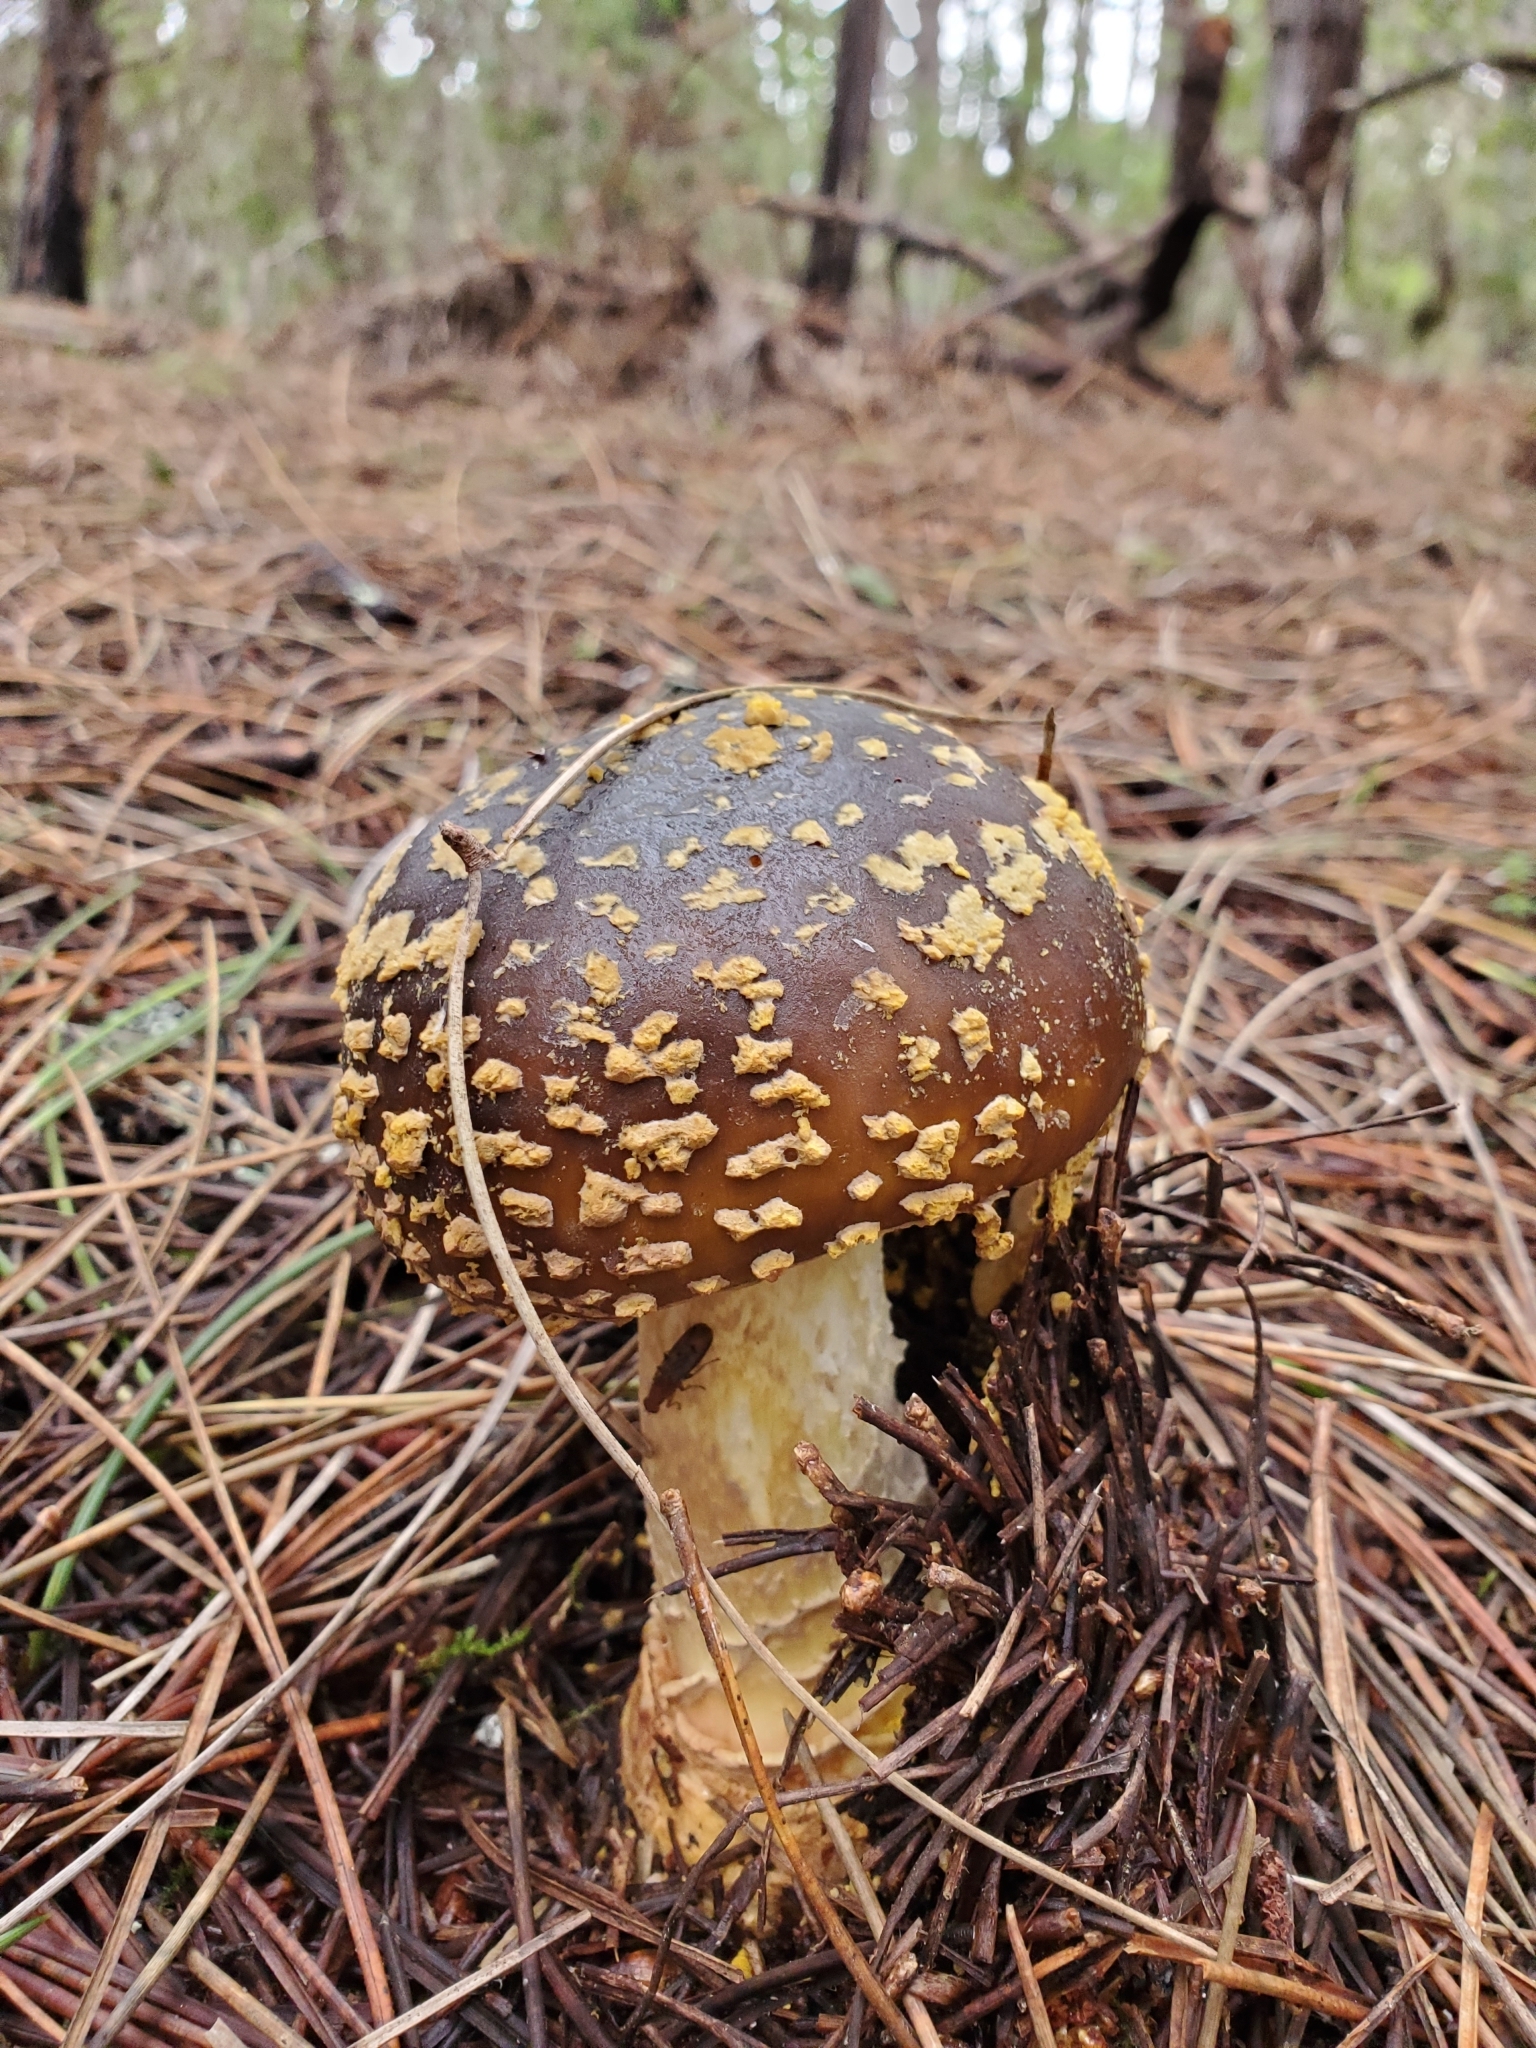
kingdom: Fungi
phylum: Basidiomycota
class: Agaricomycetes
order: Agaricales
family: Amanitaceae
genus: Amanita
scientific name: Amanita augusta
